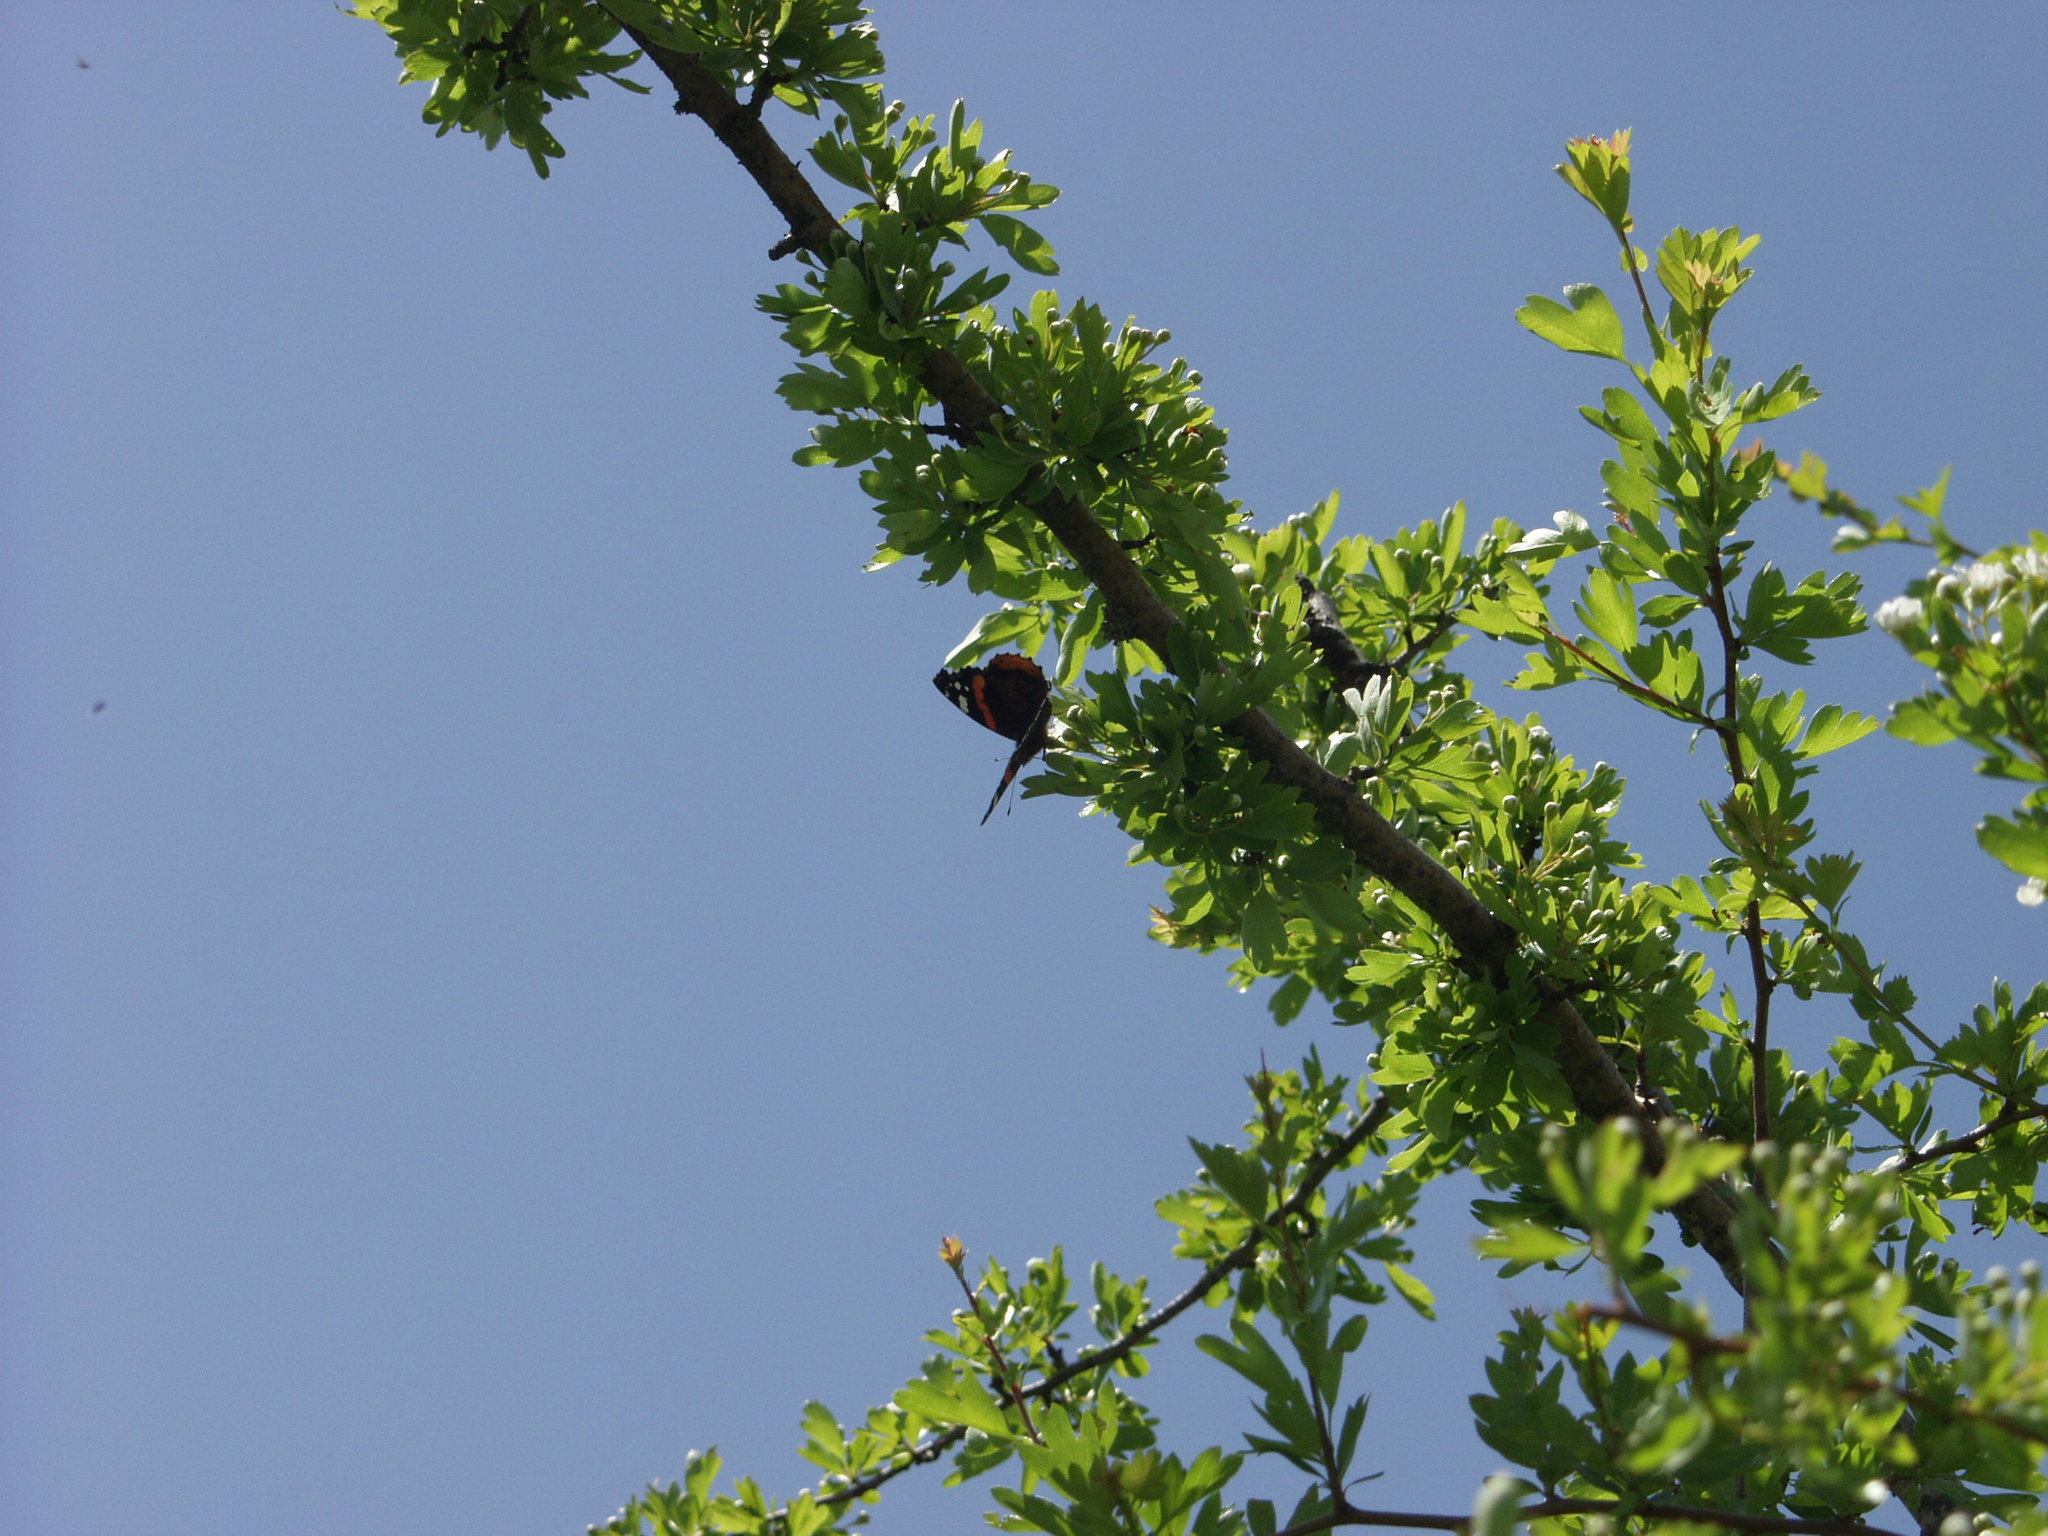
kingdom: Animalia
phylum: Arthropoda
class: Insecta
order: Lepidoptera
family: Nymphalidae
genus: Vanessa
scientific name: Vanessa atalanta
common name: Red admiral
